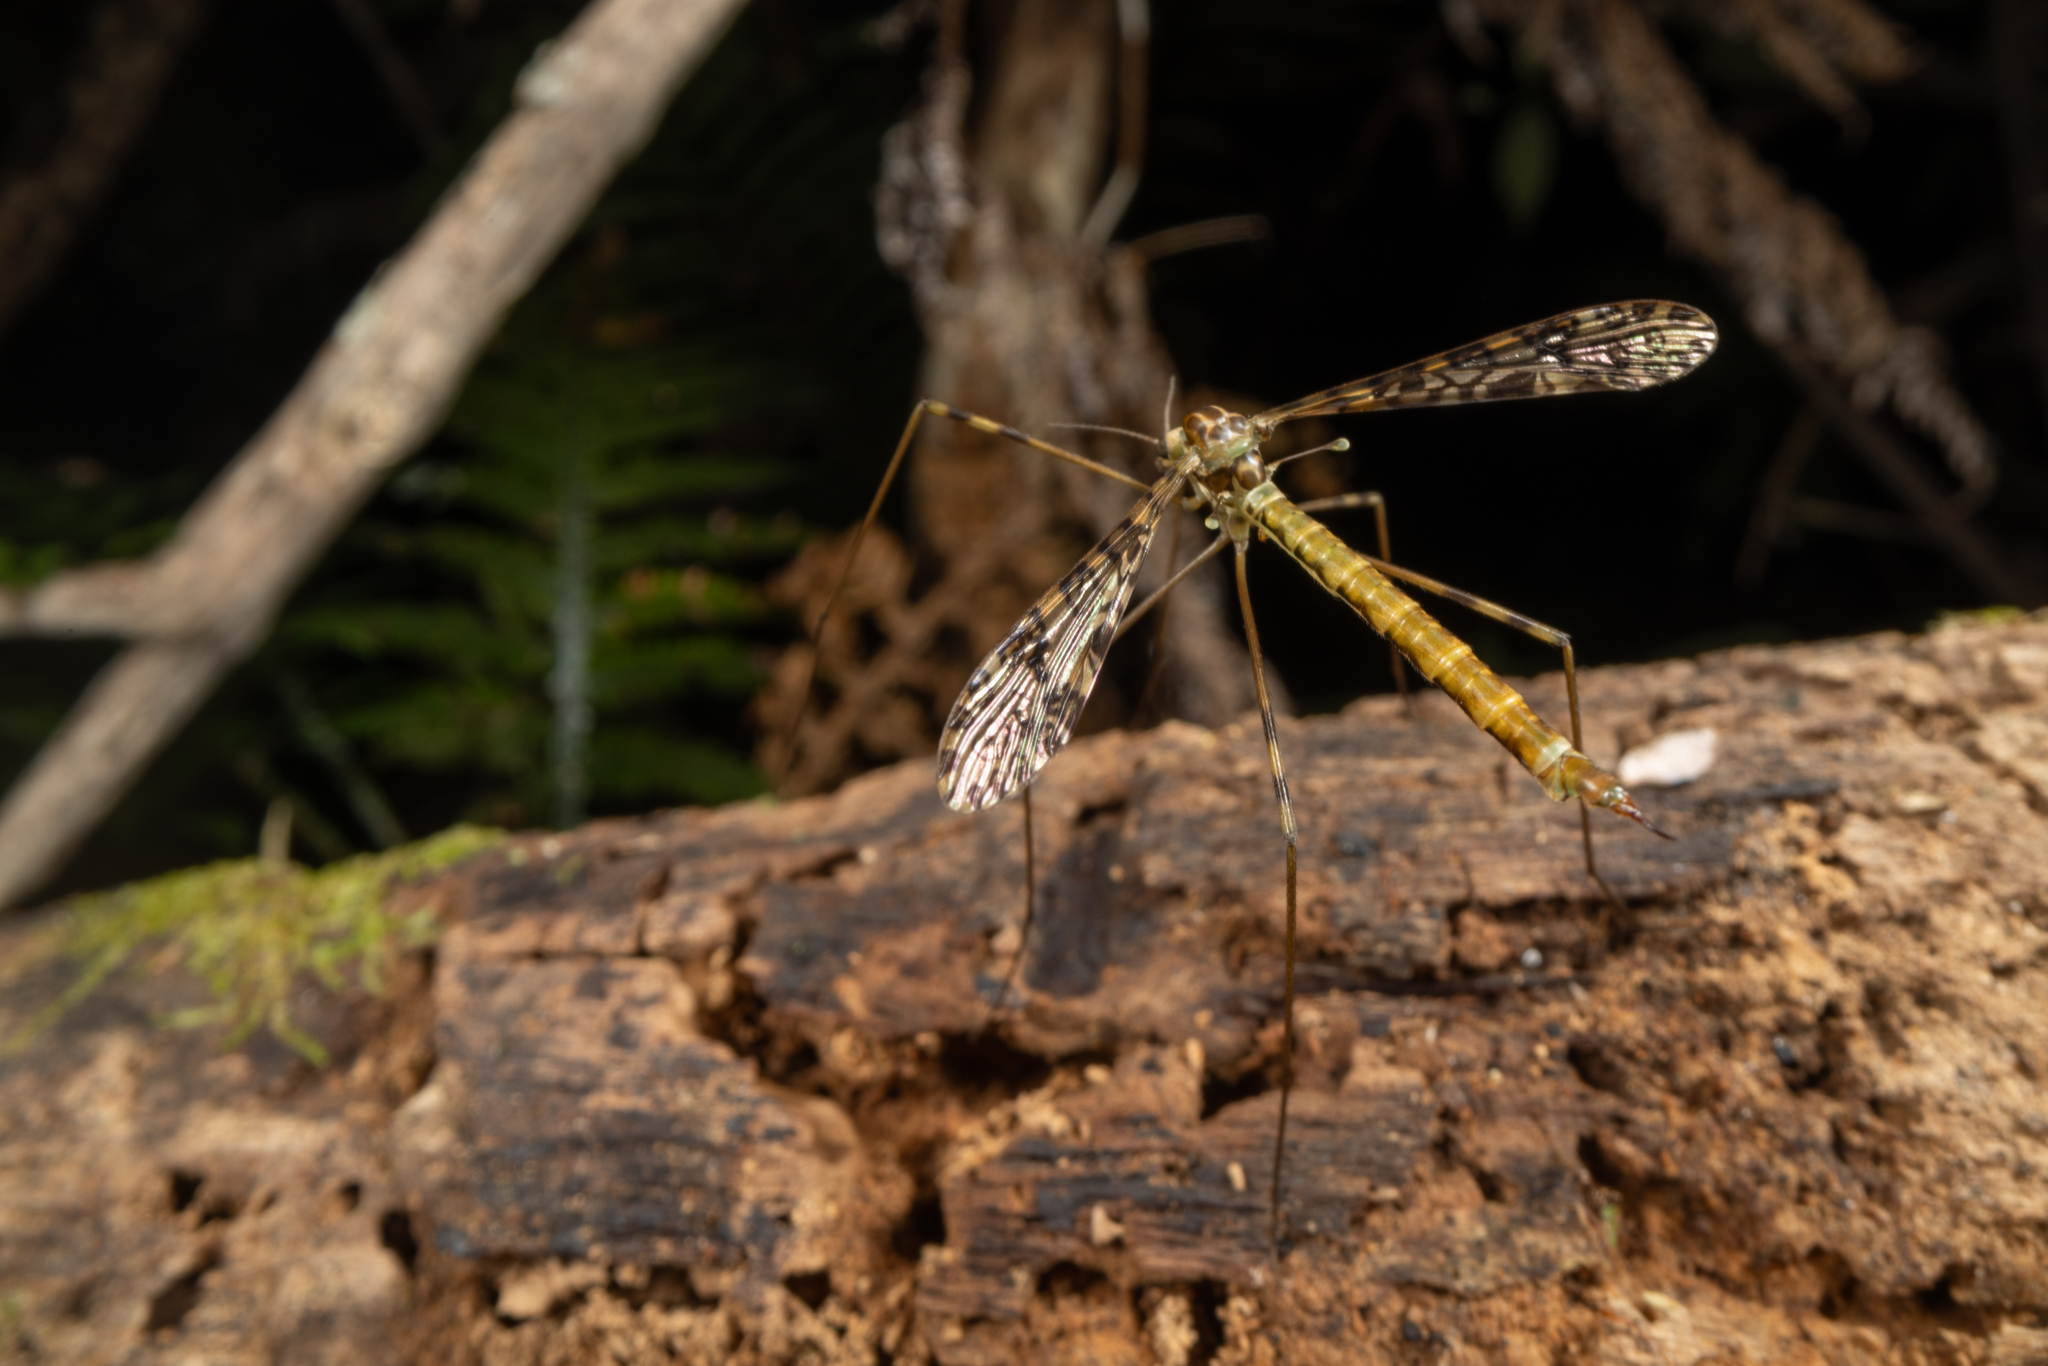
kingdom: Animalia
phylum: Arthropoda
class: Insecta
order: Diptera
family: Limoniidae
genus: Austrolimnophila
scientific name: Austrolimnophila argus
